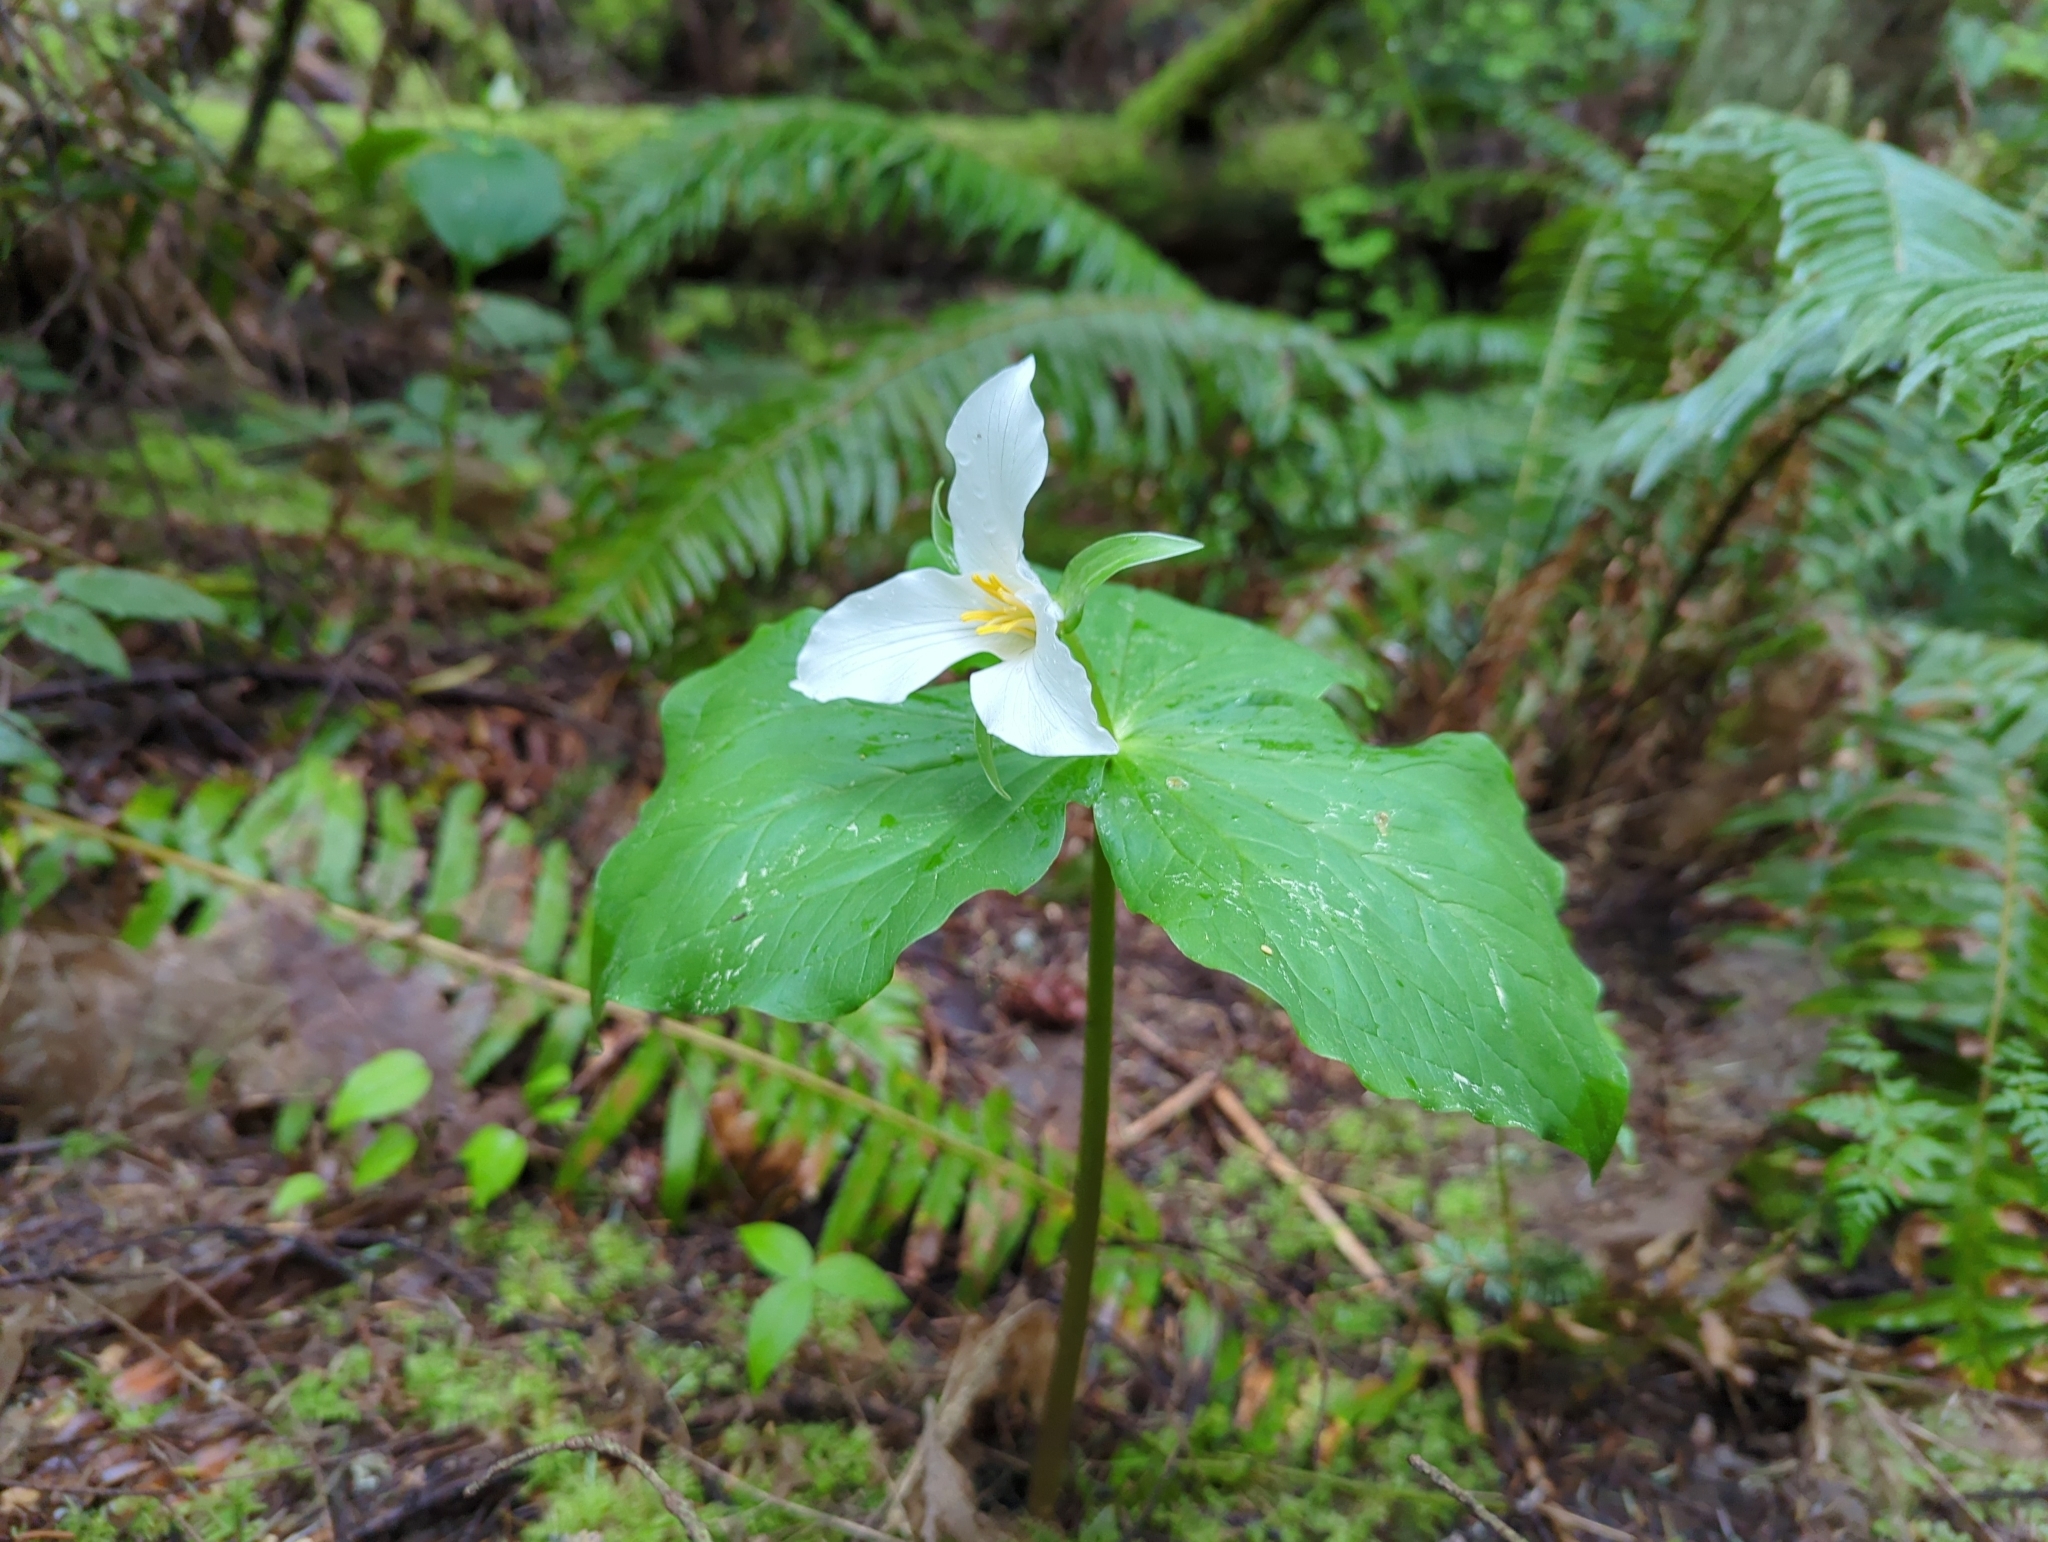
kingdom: Plantae
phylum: Tracheophyta
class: Liliopsida
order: Liliales
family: Melanthiaceae
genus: Trillium
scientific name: Trillium ovatum
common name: Pacific trillium
